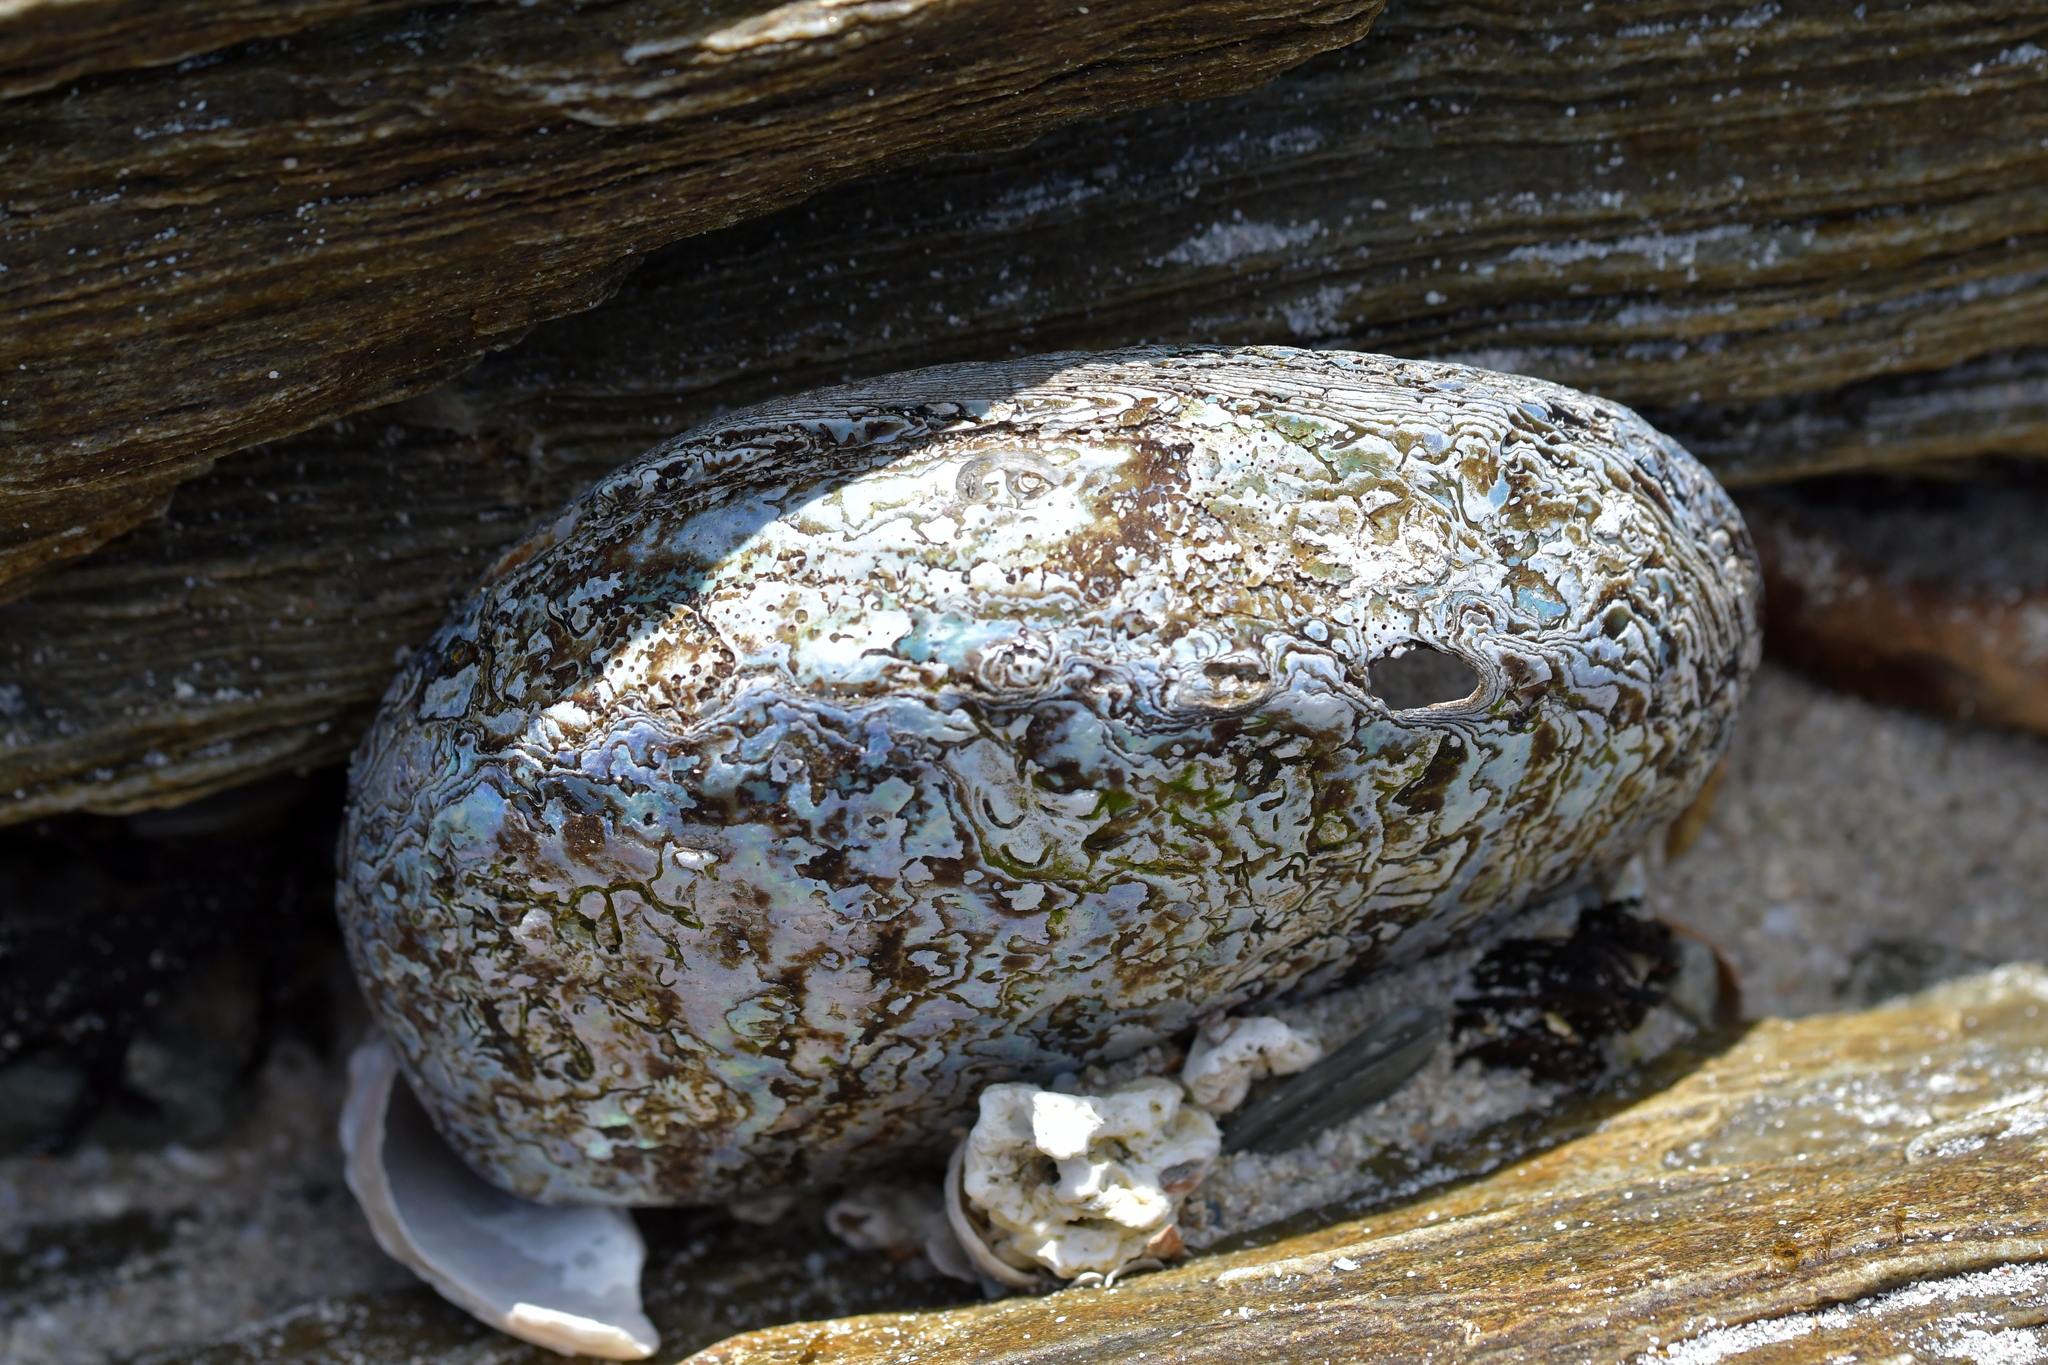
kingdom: Animalia
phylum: Mollusca
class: Gastropoda
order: Lepetellida
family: Haliotidae
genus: Haliotis
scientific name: Haliotis iris
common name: Abalone
